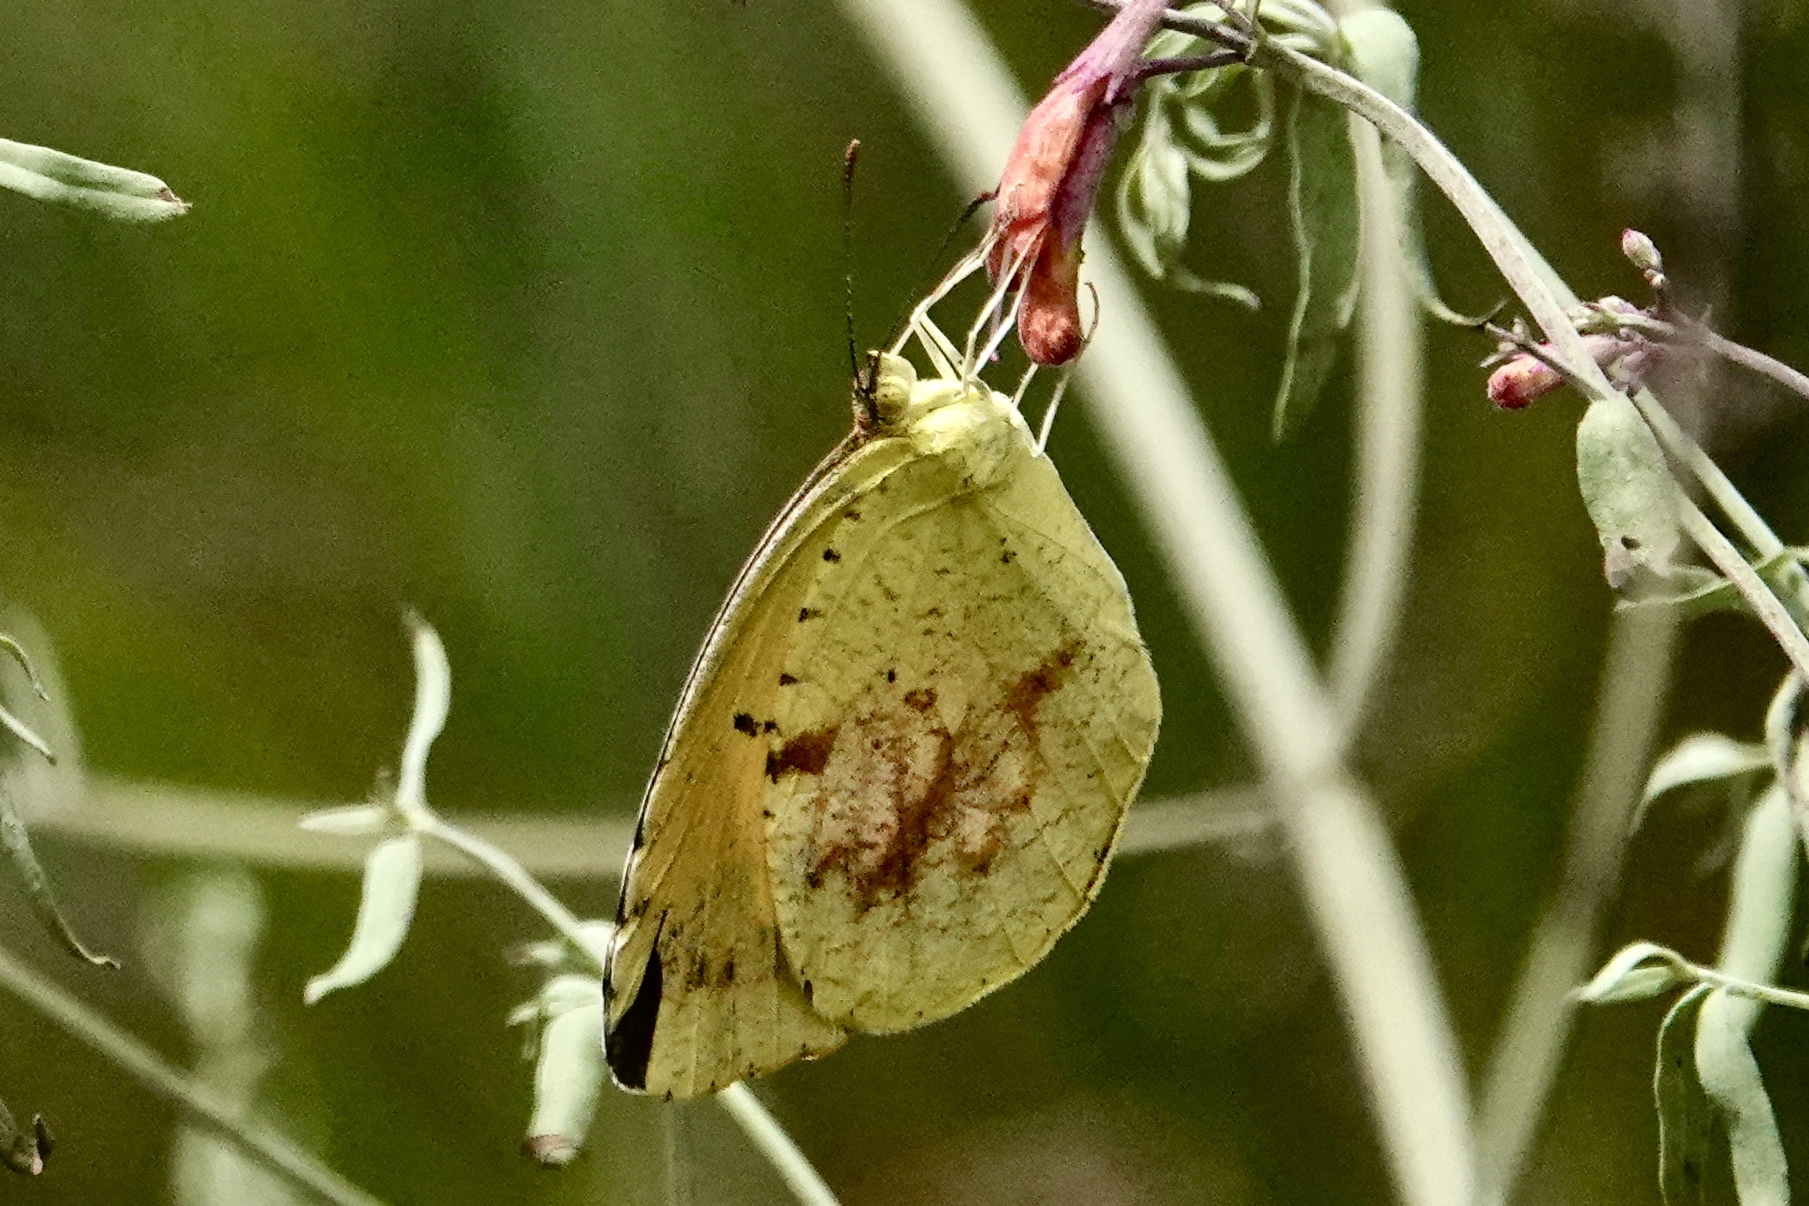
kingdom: Animalia
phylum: Arthropoda
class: Insecta
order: Lepidoptera
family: Pieridae
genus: Abaeis
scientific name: Abaeis nicippe
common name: Sleepy orange
